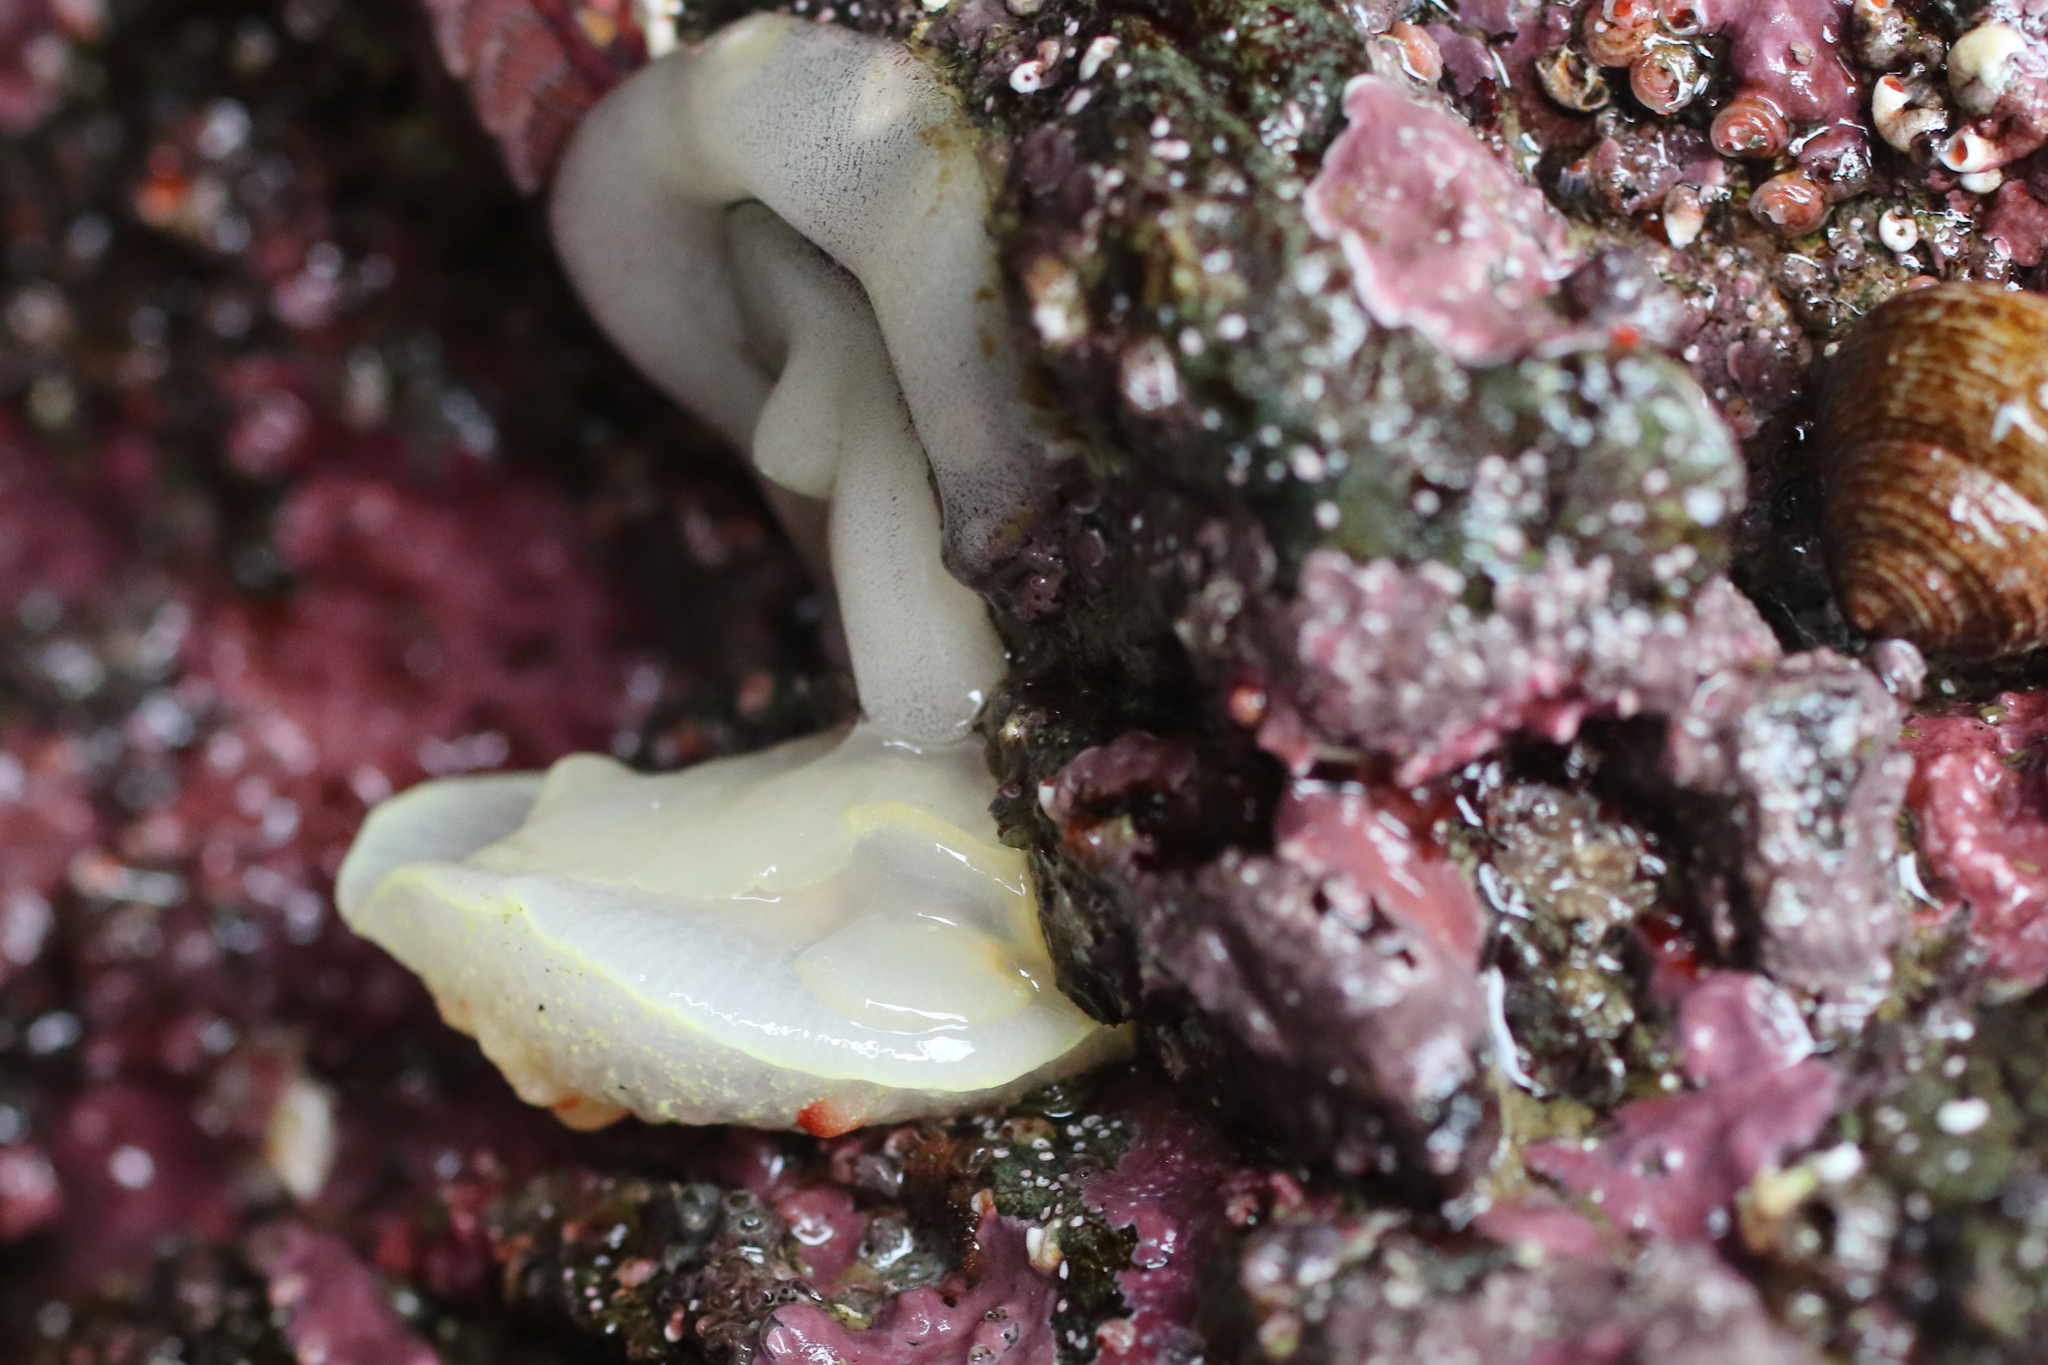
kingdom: Animalia
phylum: Mollusca
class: Gastropoda
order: Nudibranchia
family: Onchidorididae
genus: Acanthodoris
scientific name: Acanthodoris nanaimoensis
